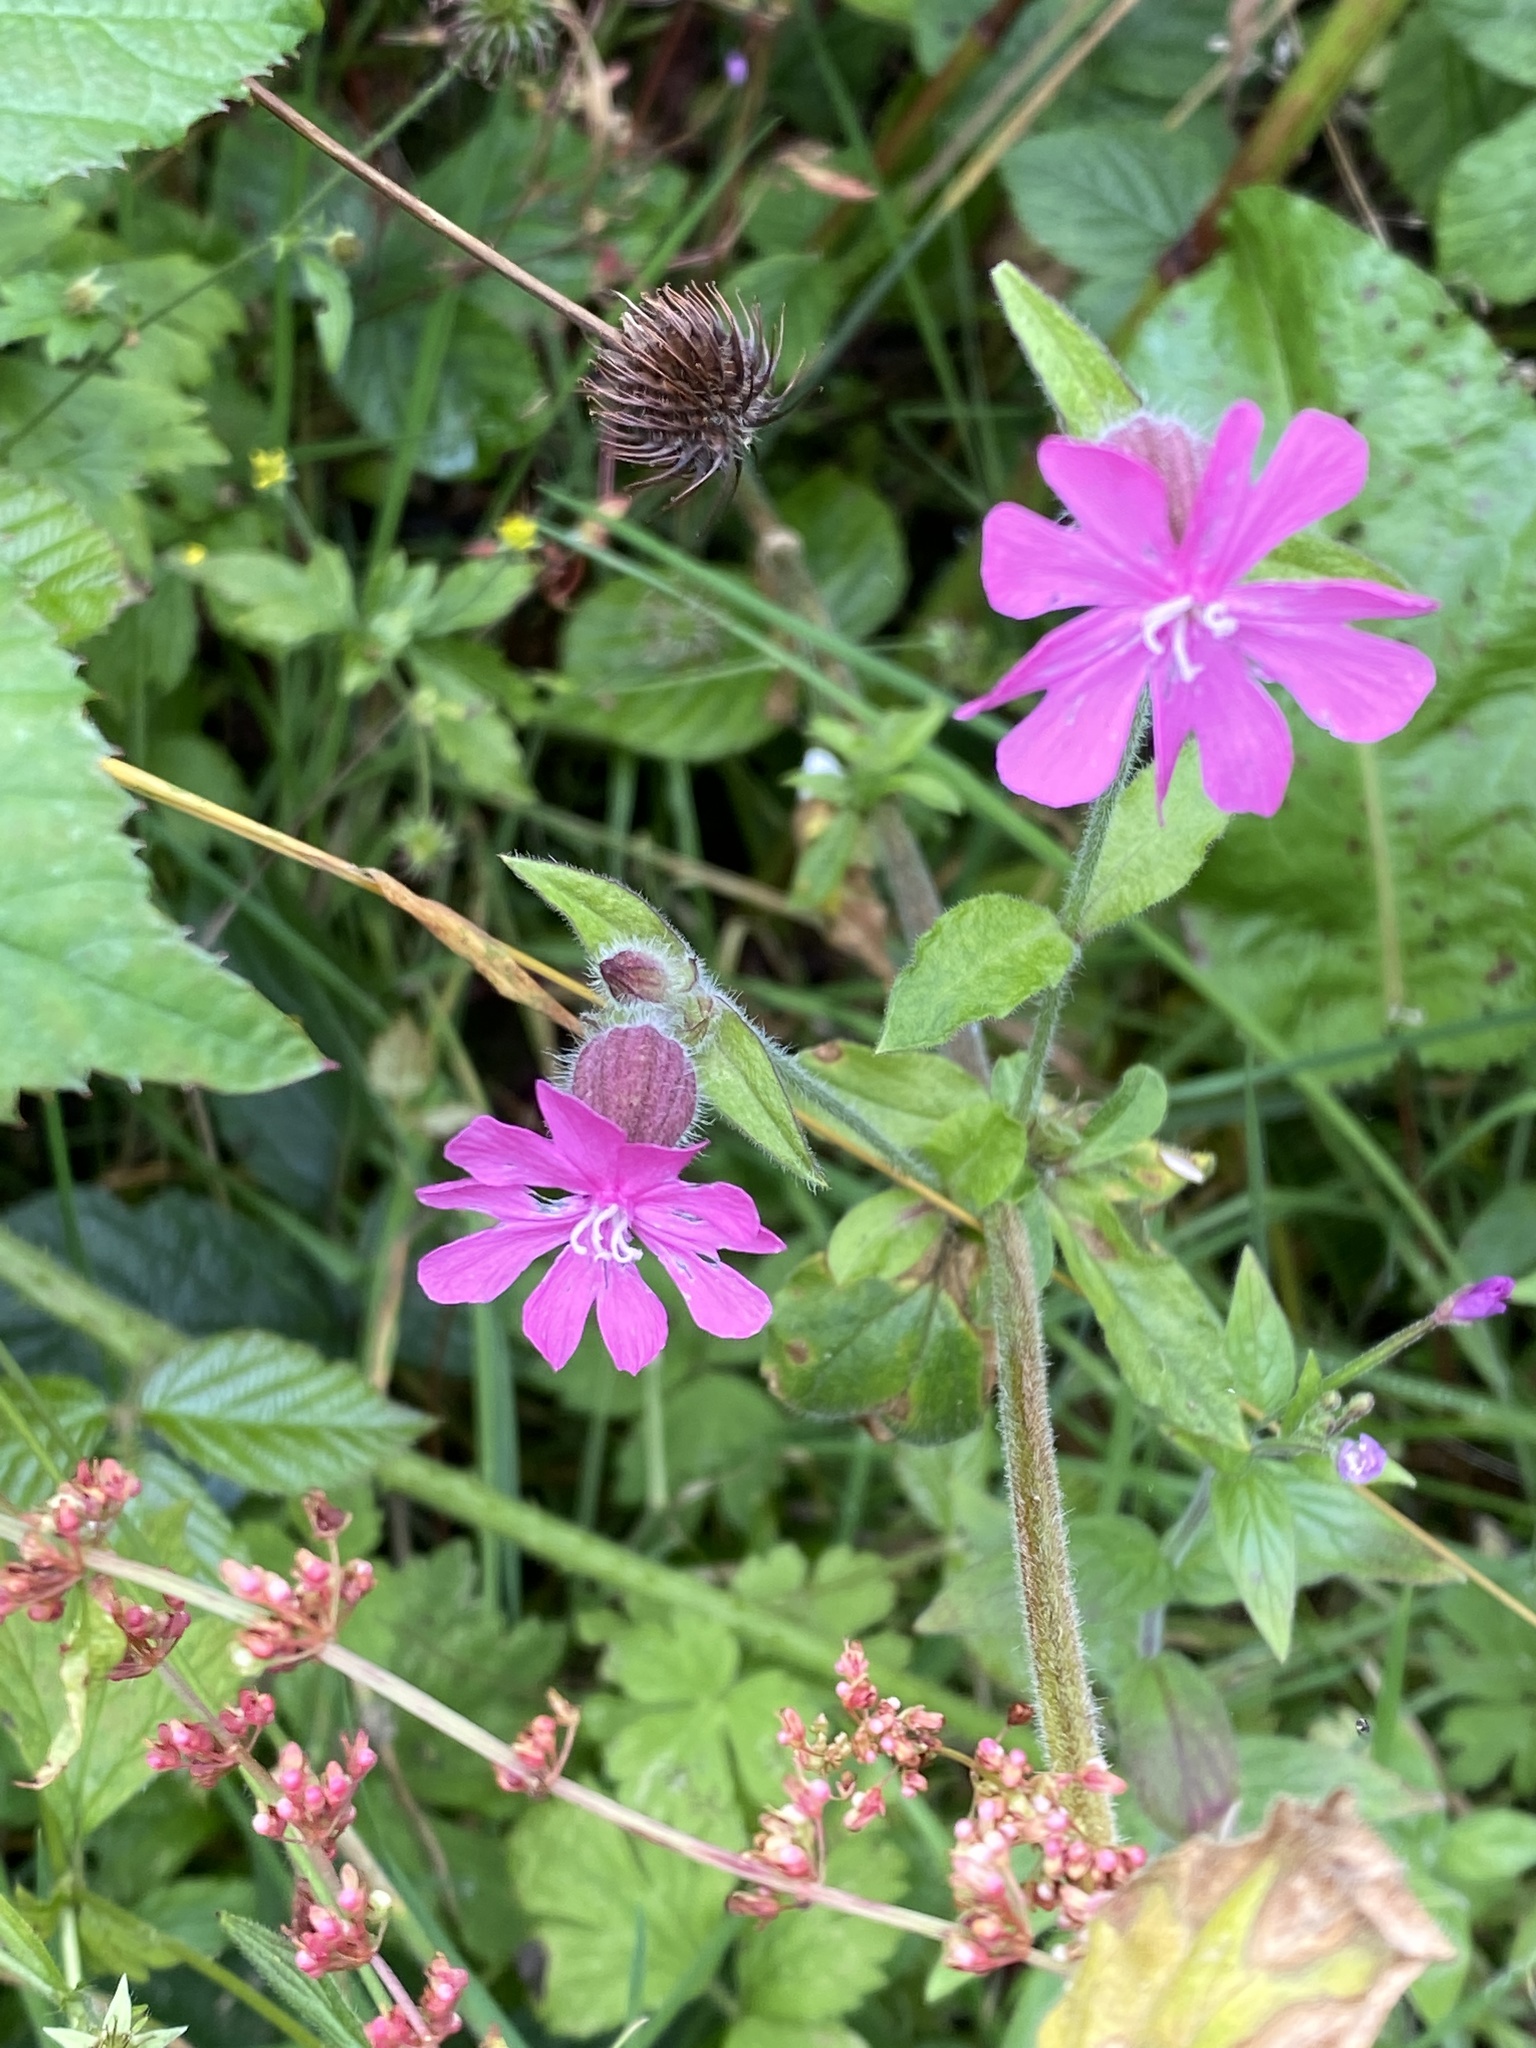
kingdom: Plantae
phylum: Tracheophyta
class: Magnoliopsida
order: Caryophyllales
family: Caryophyllaceae
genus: Silene
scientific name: Silene dioica
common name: Red campion
